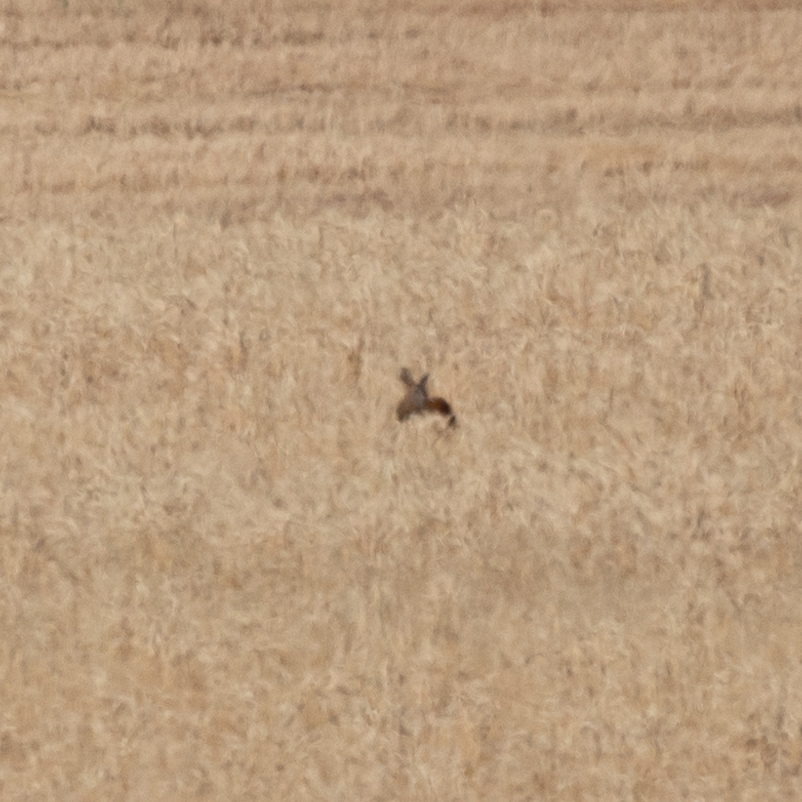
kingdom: Animalia
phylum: Chordata
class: Mammalia
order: Artiodactyla
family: Cervidae
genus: Capreolus
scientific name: Capreolus capreolus
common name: Western roe deer
